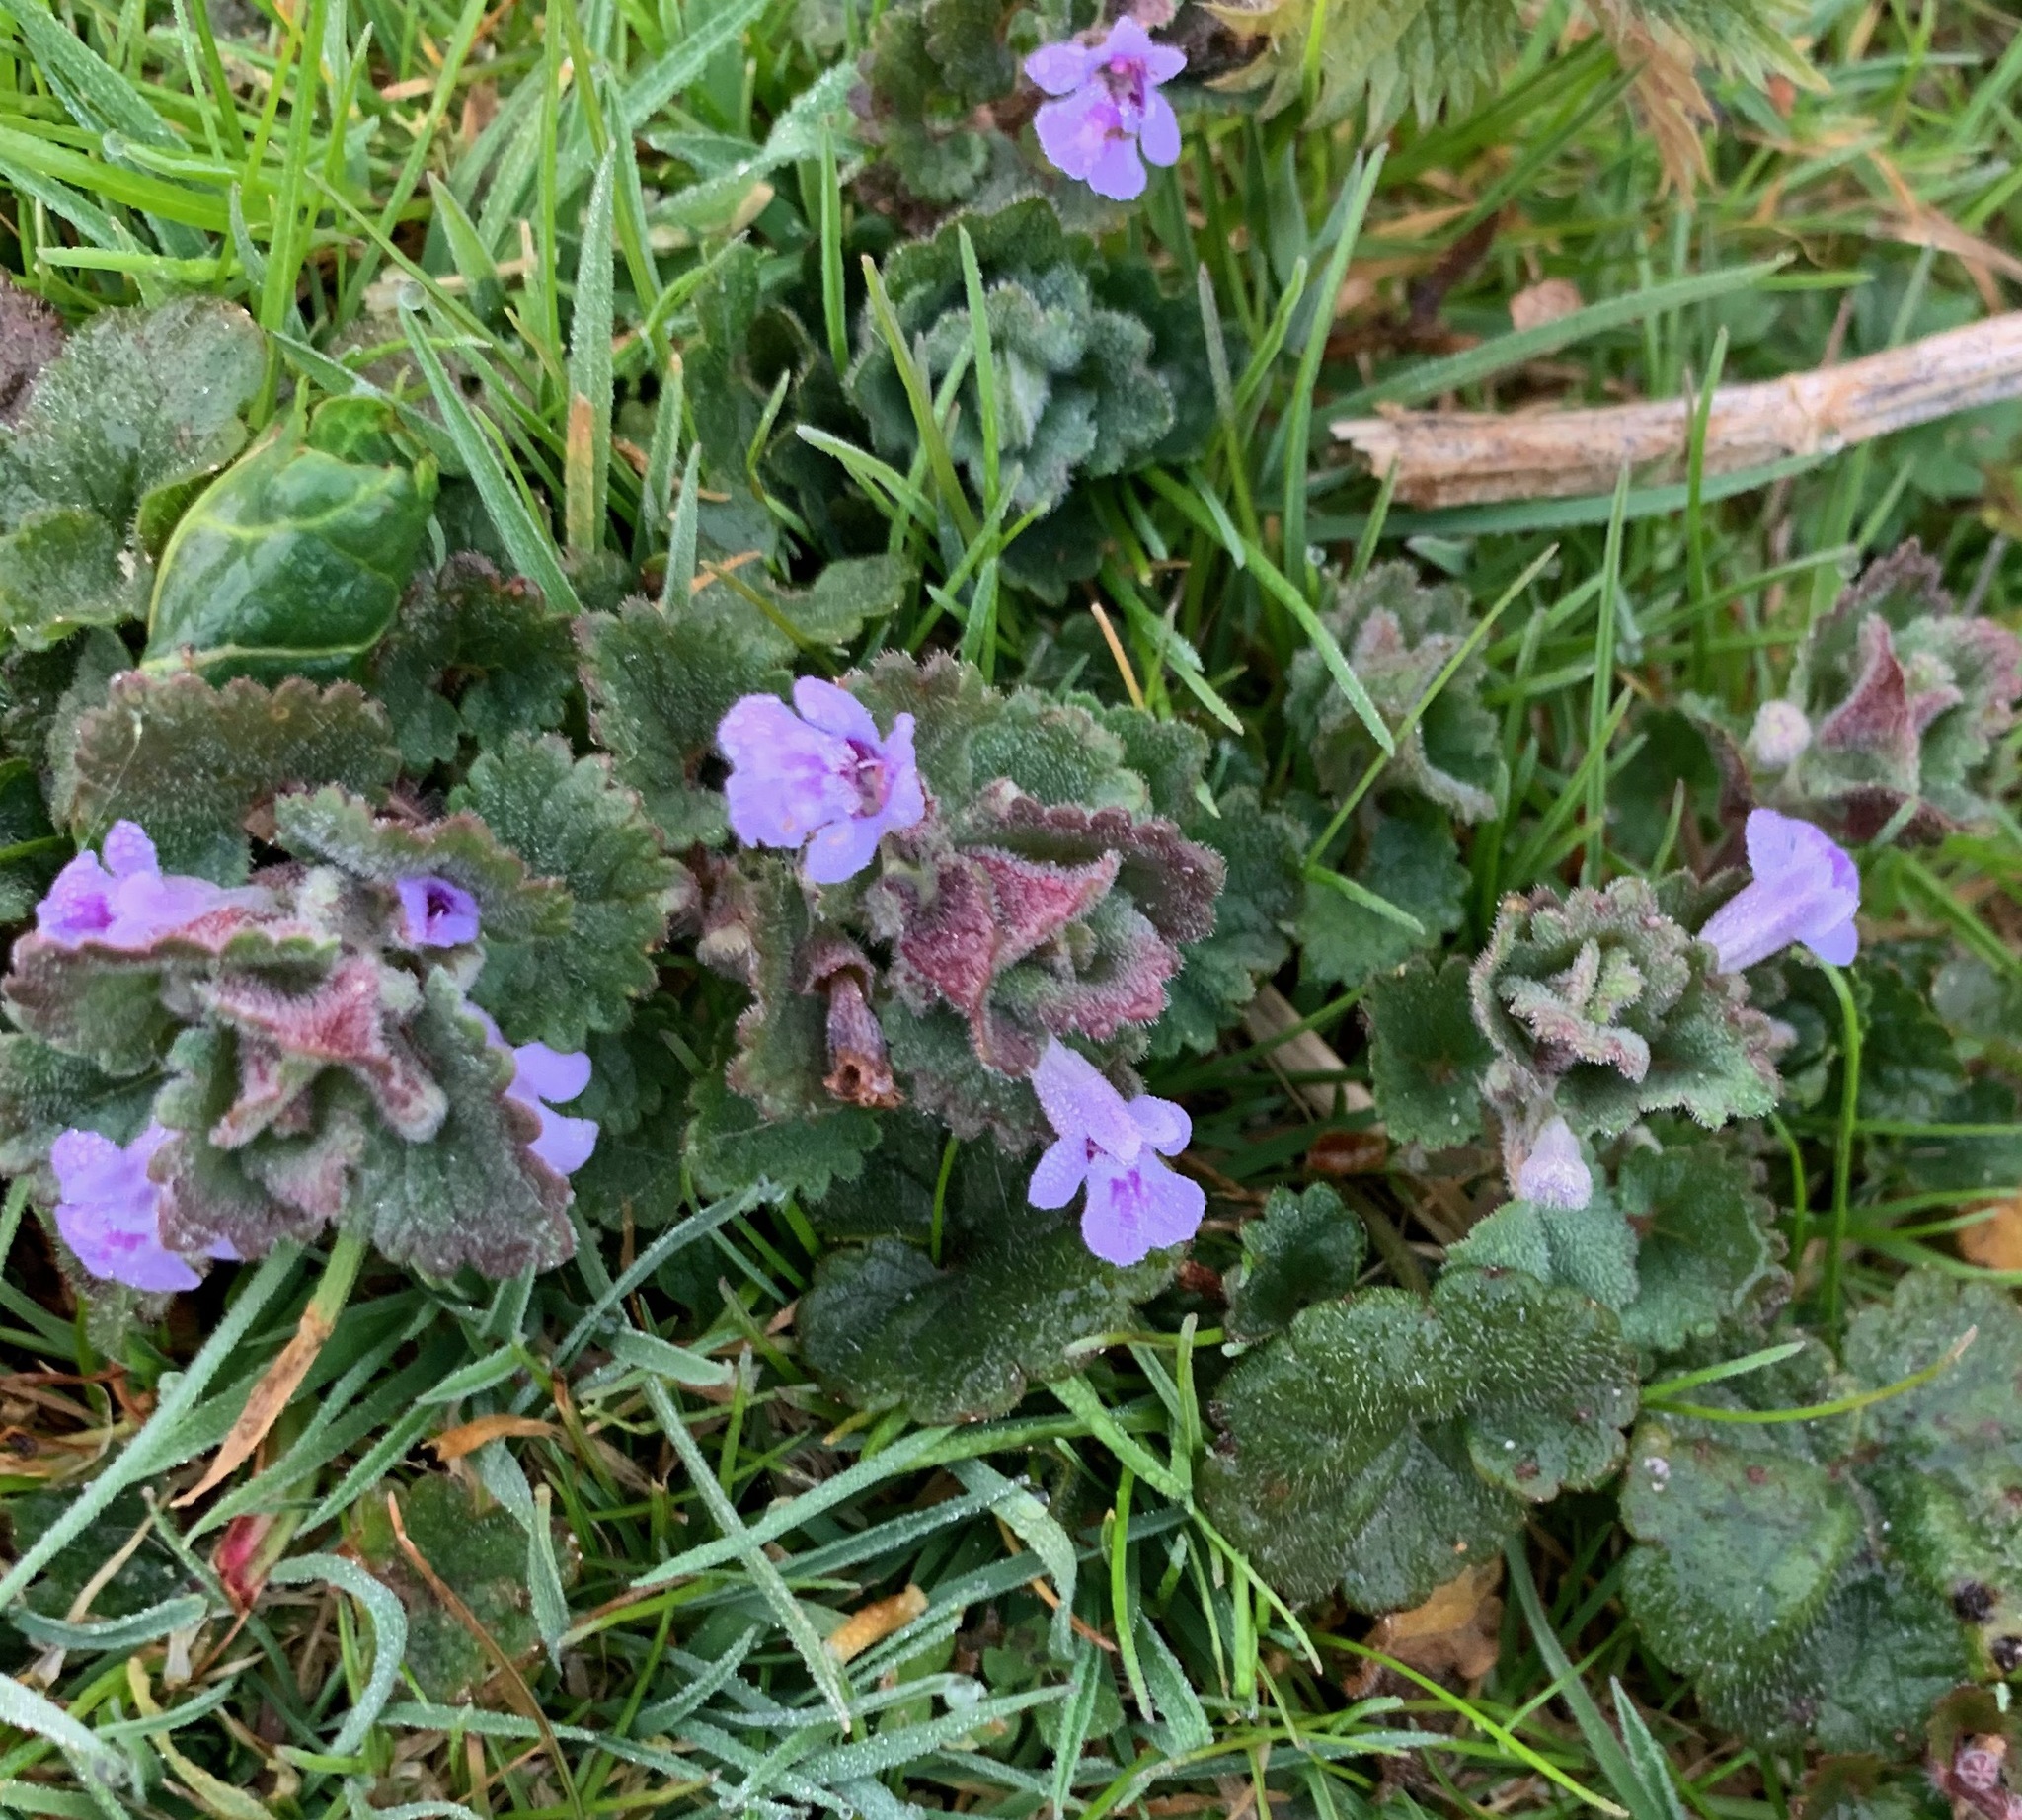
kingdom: Plantae
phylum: Tracheophyta
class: Magnoliopsida
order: Lamiales
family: Lamiaceae
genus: Glechoma
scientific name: Glechoma hederacea
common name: Ground ivy
